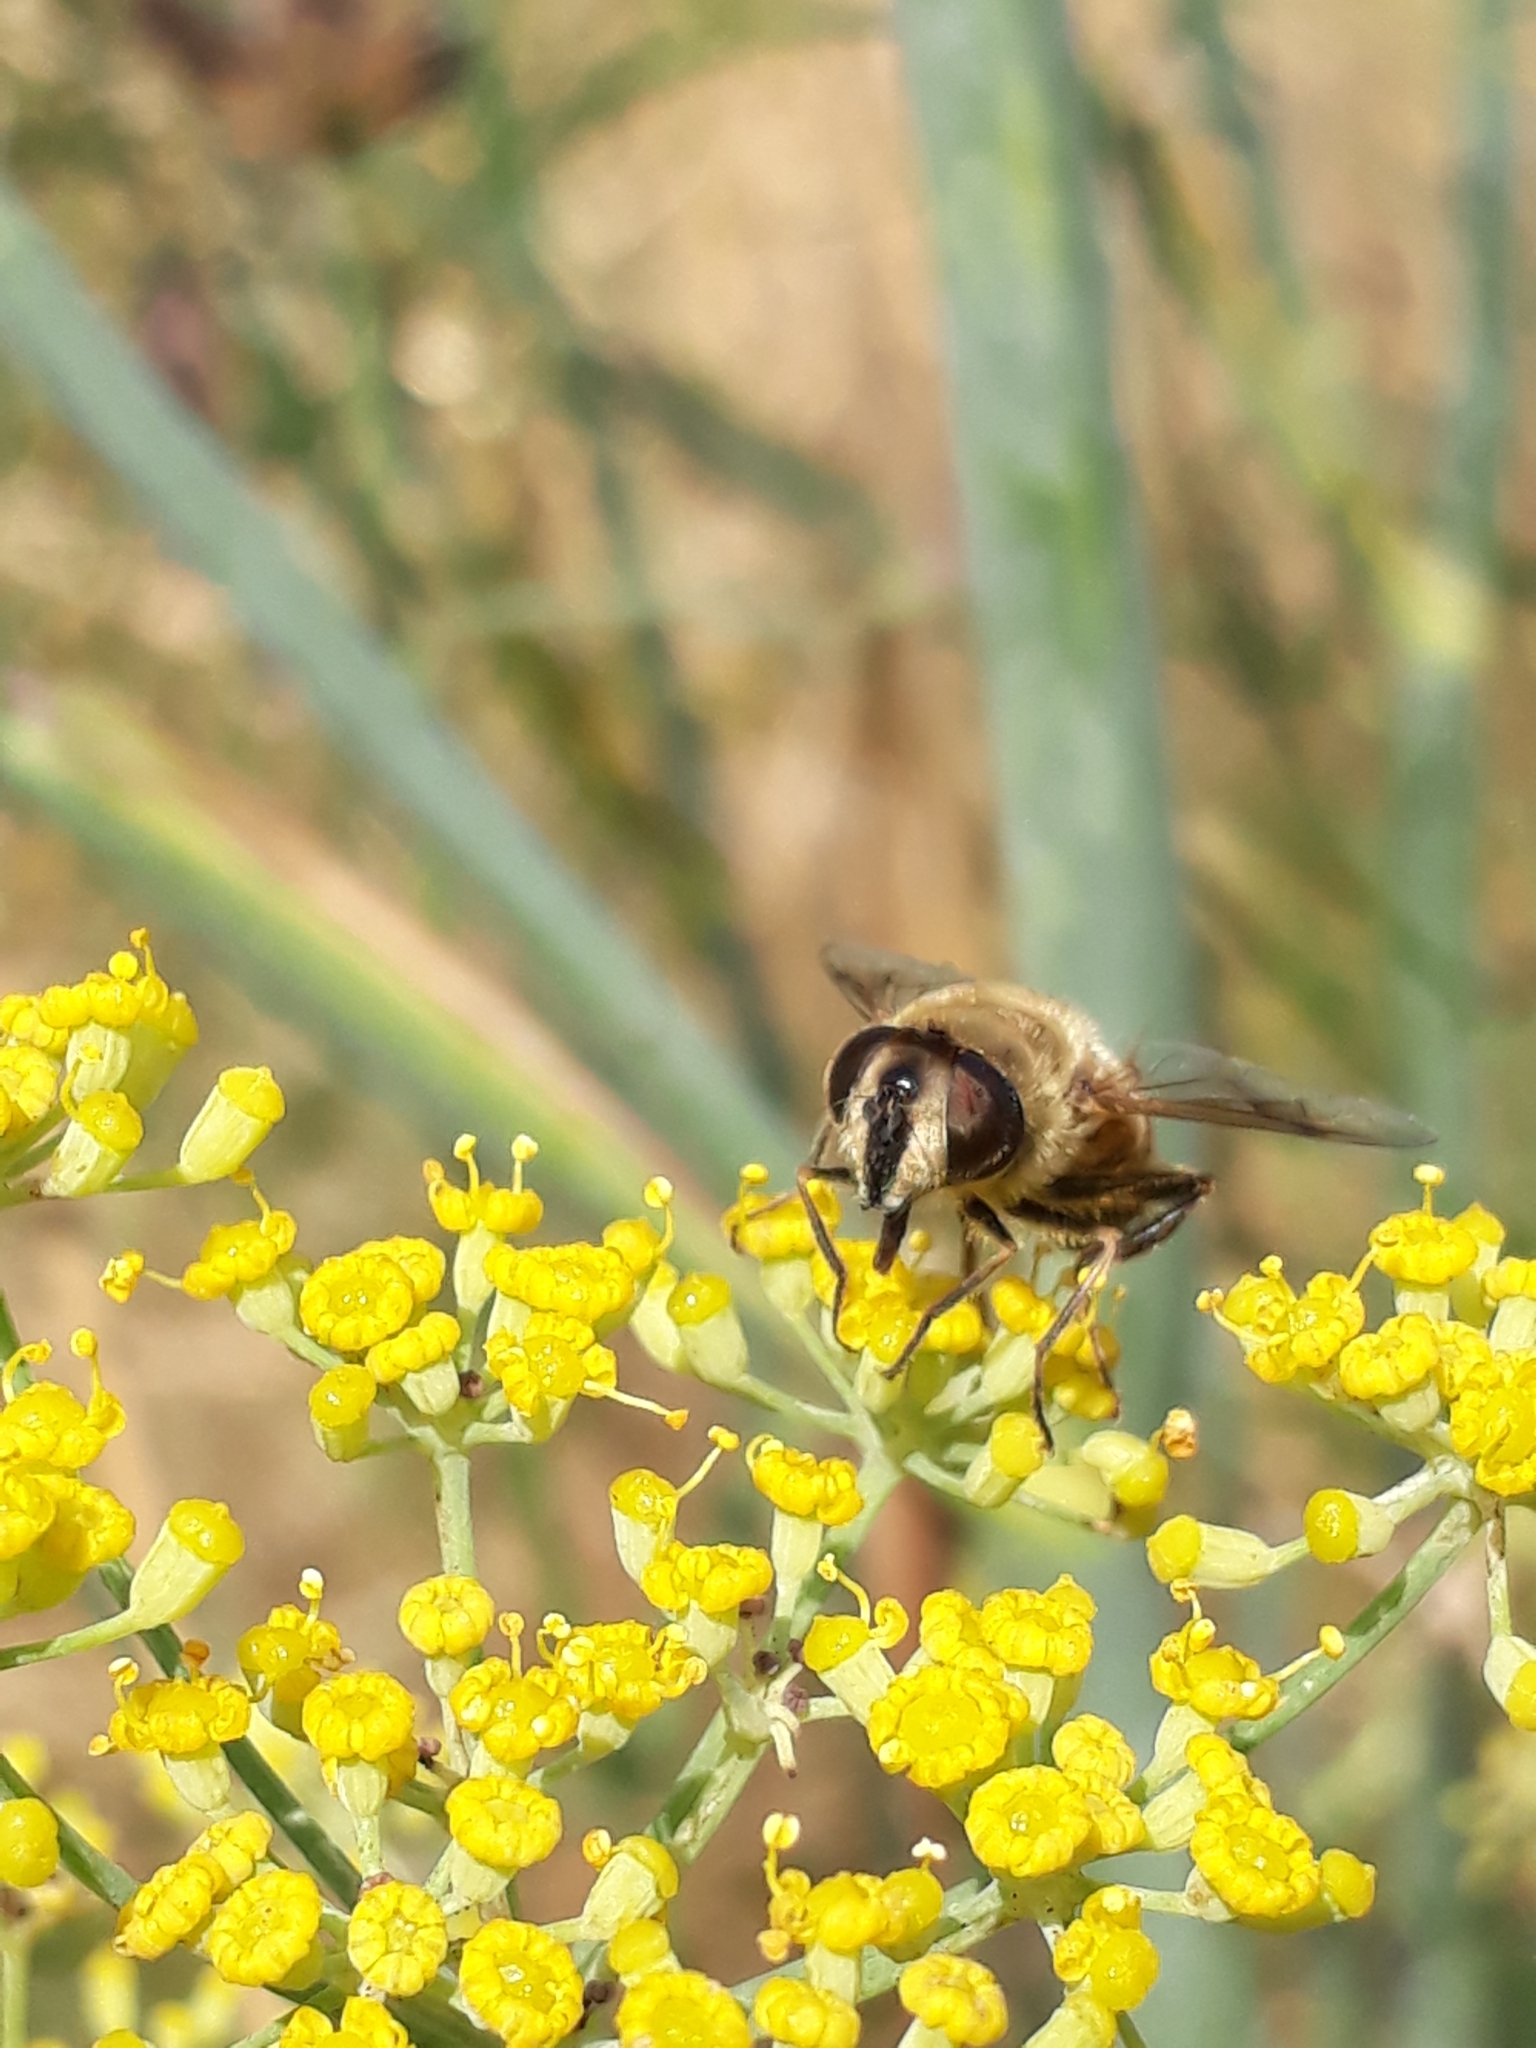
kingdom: Animalia
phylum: Arthropoda
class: Insecta
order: Diptera
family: Syrphidae
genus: Eristalis
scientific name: Eristalis tenax
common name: Drone fly
